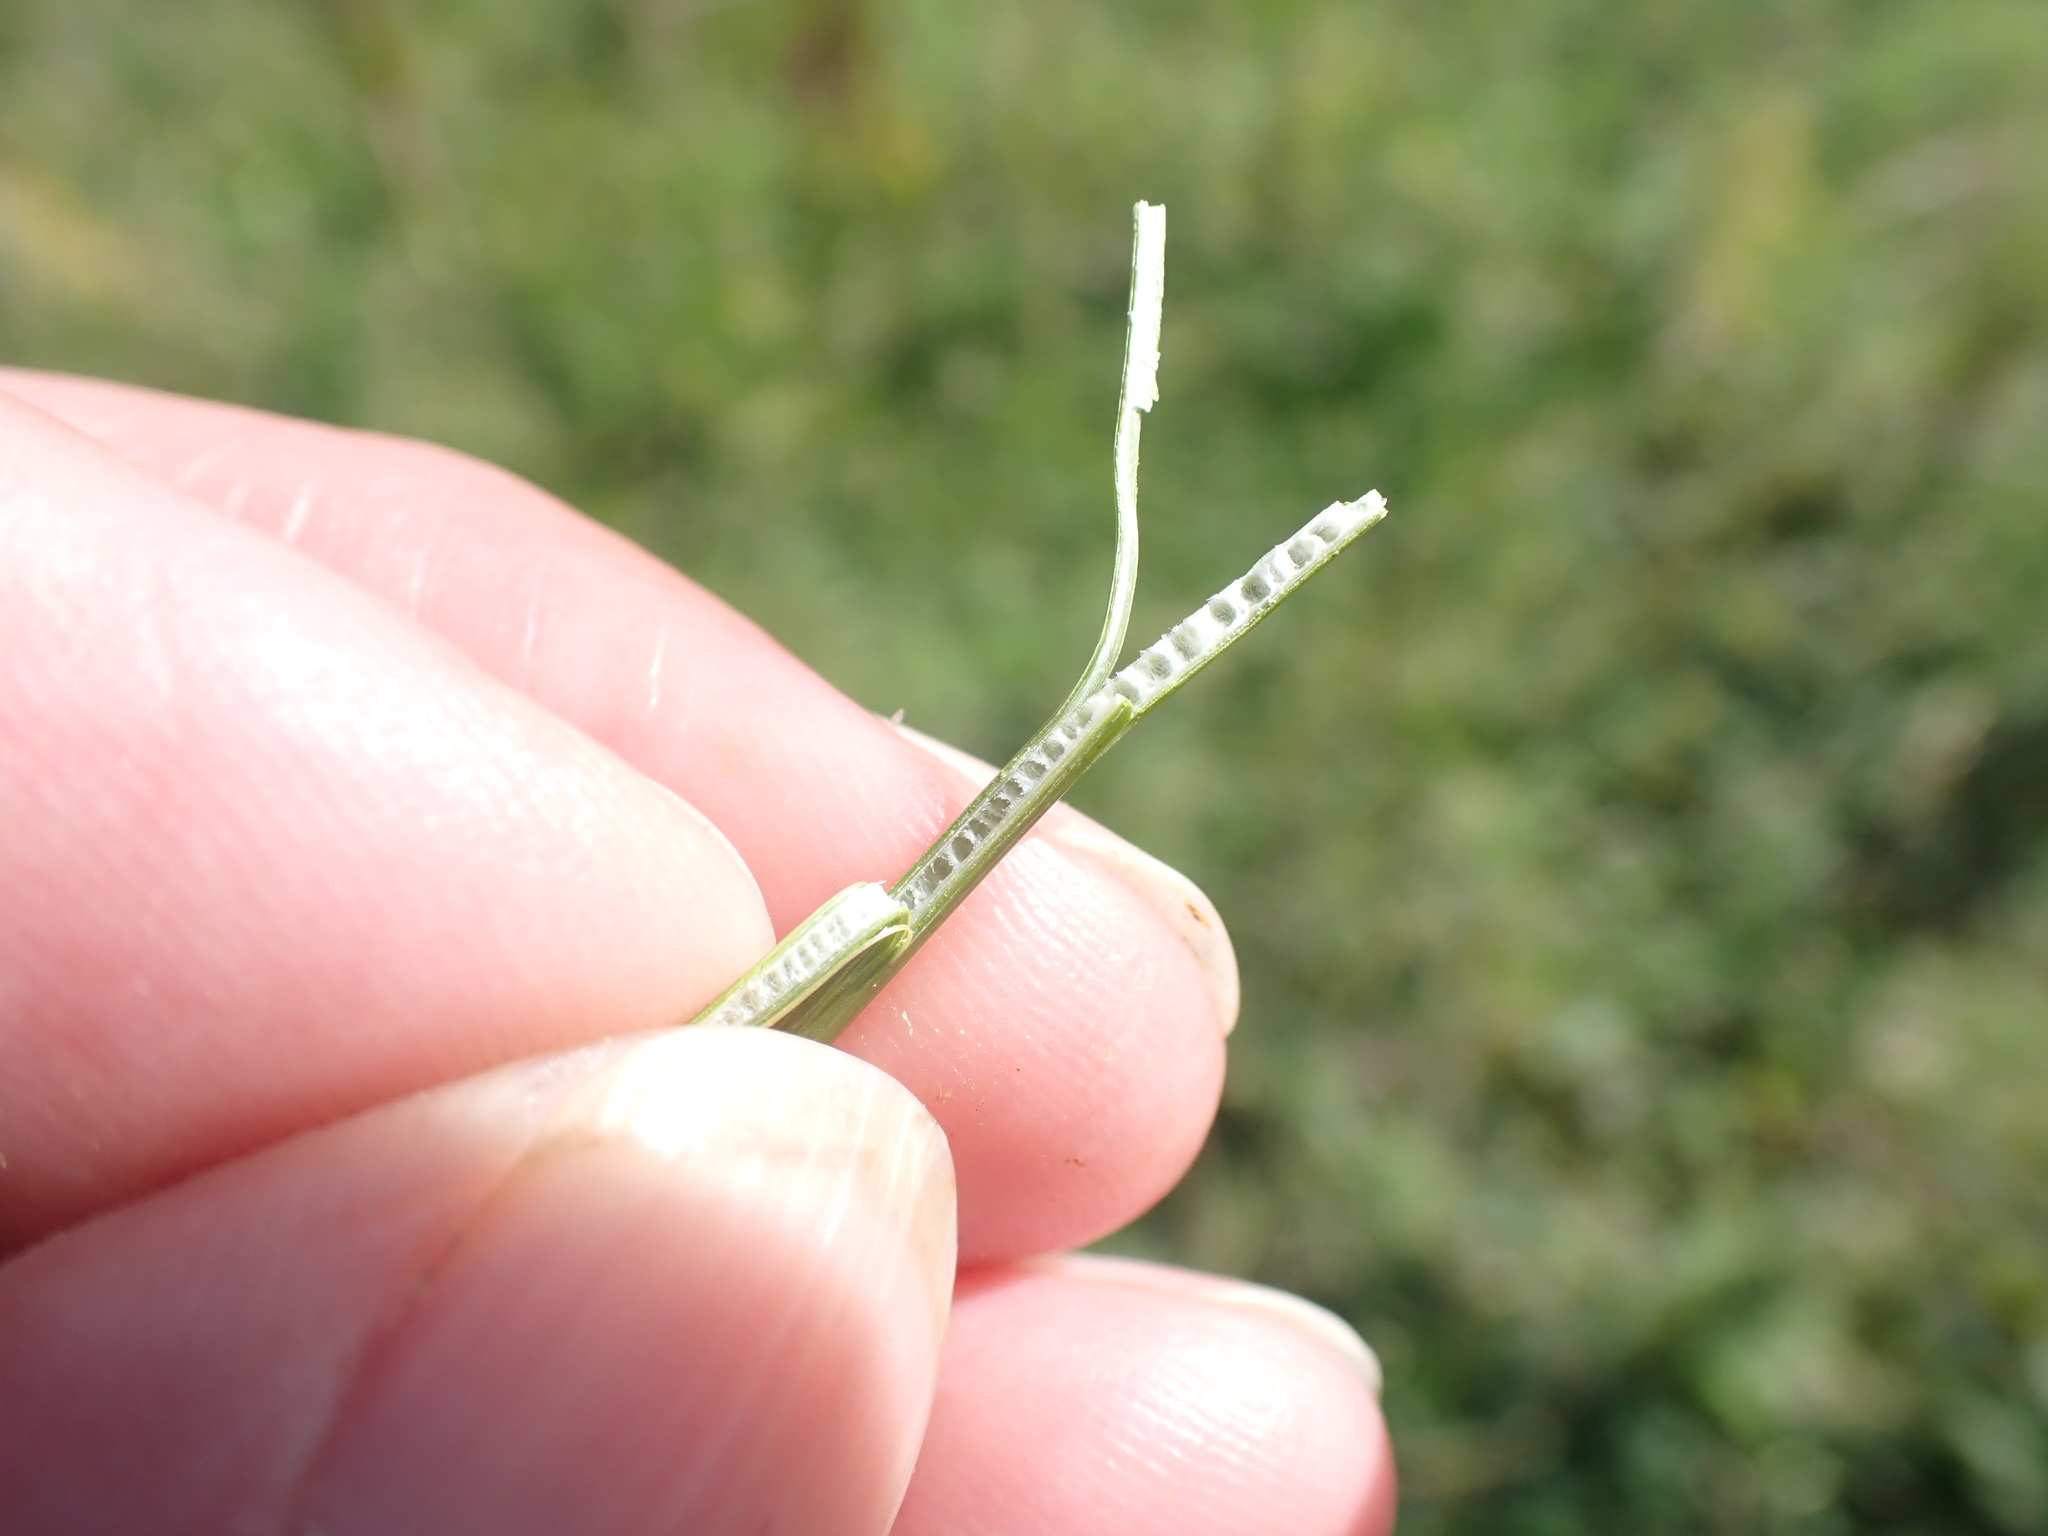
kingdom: Plantae
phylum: Tracheophyta
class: Liliopsida
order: Poales
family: Juncaceae
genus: Juncus
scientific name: Juncus inflexus
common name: Hard rush
